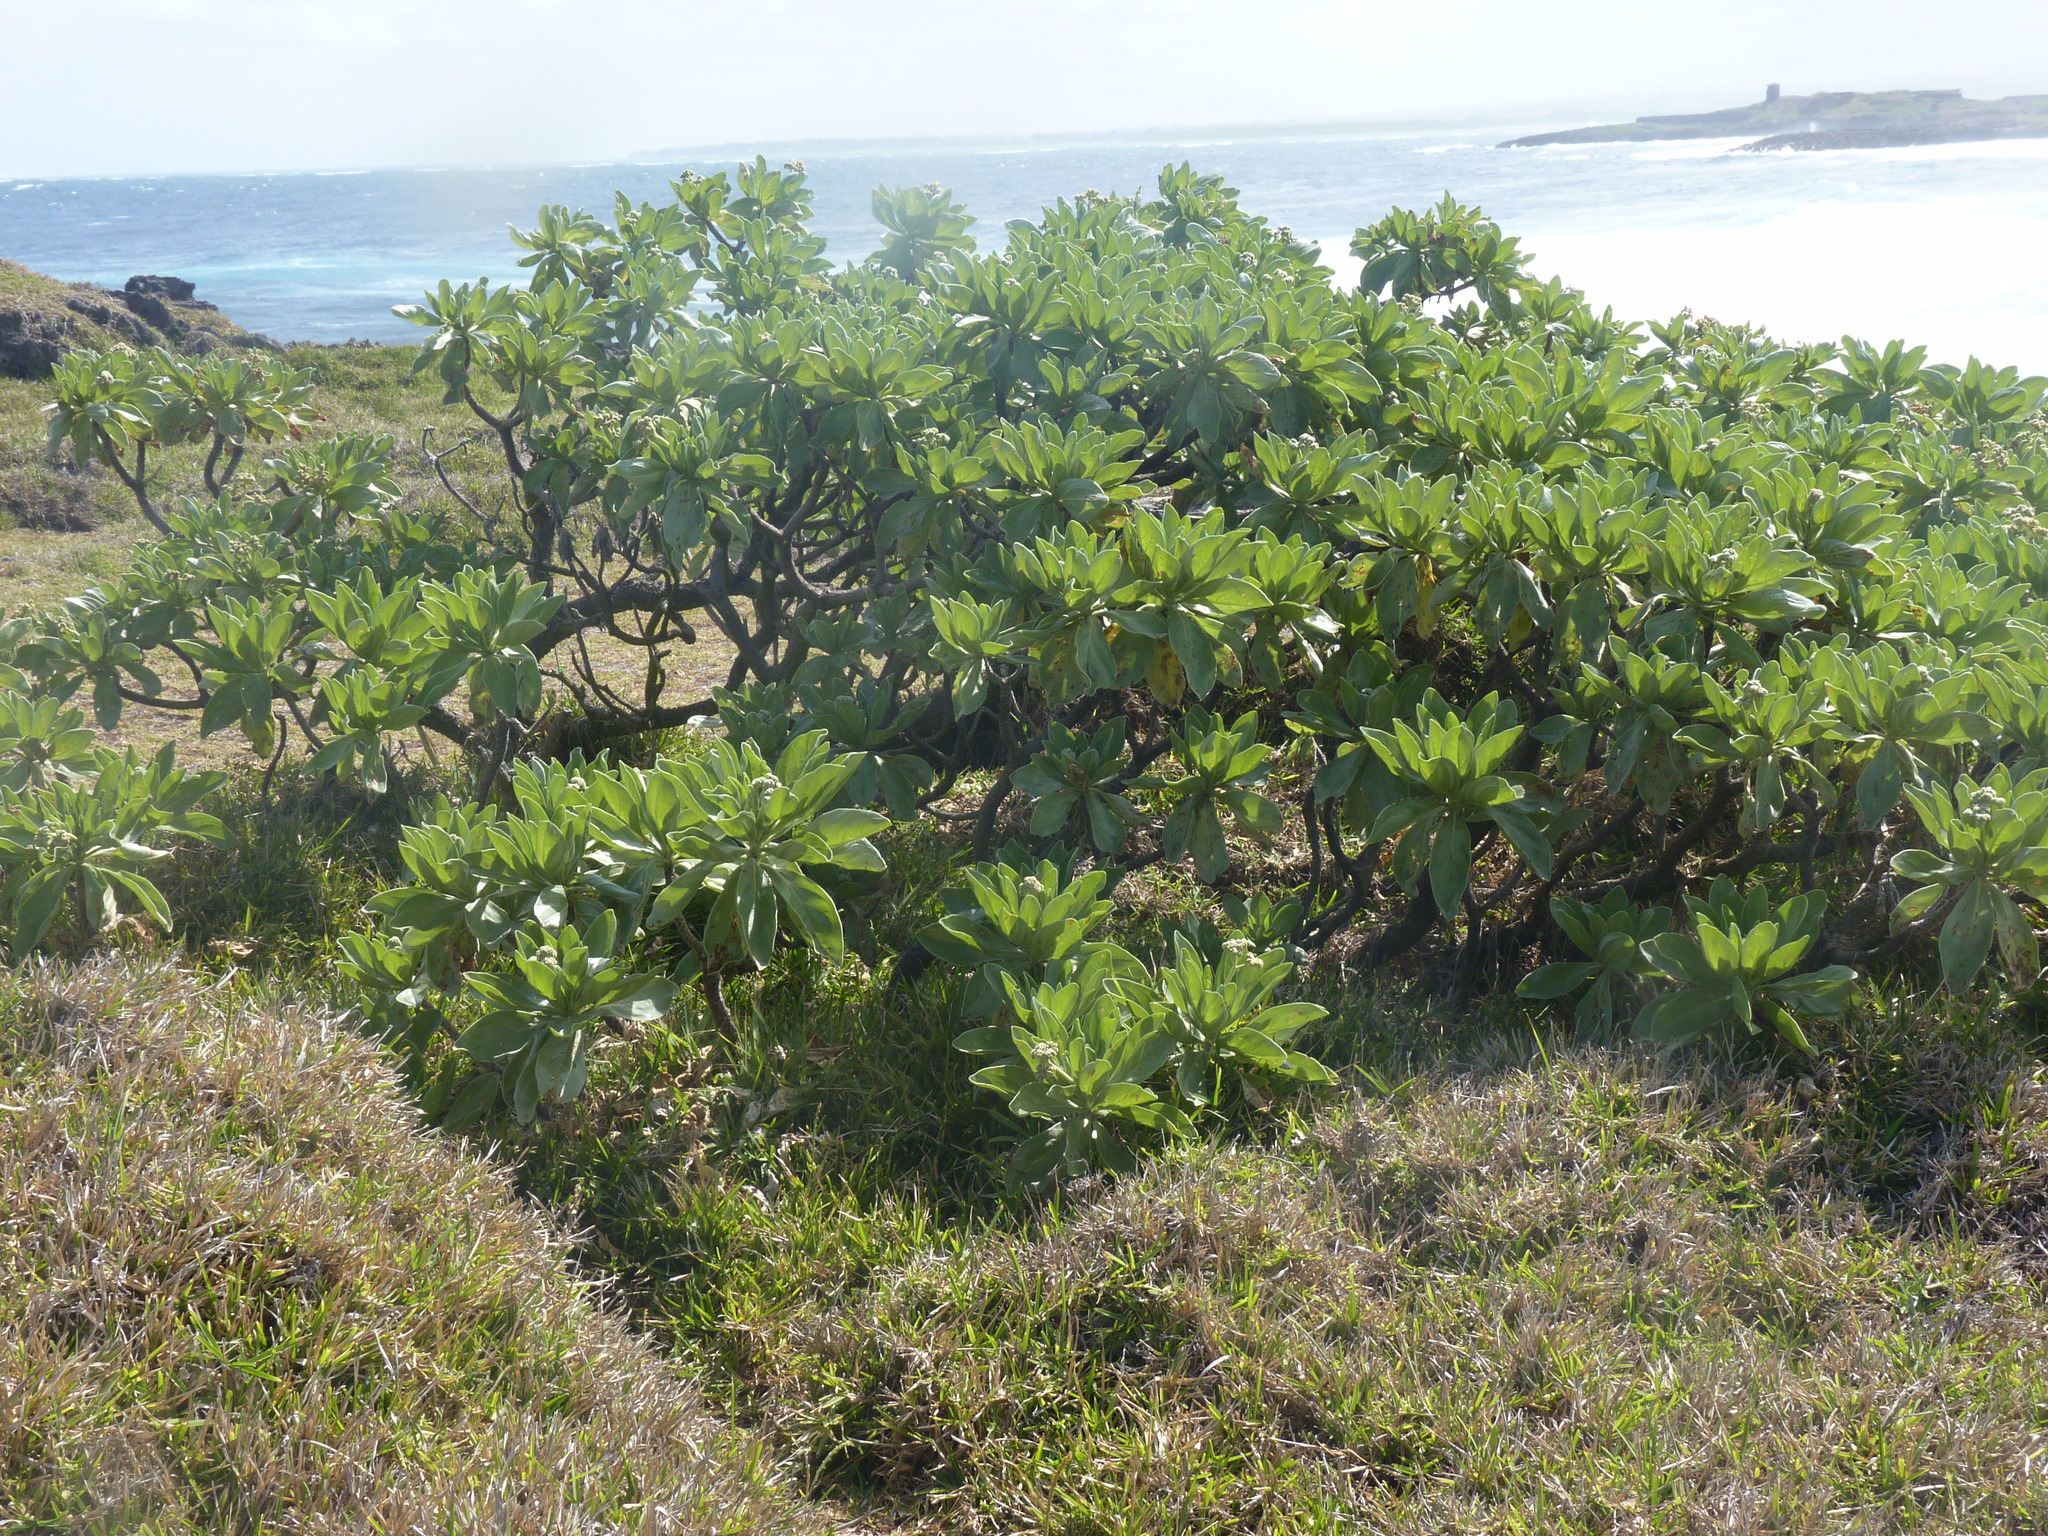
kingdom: Plantae
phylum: Tracheophyta
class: Magnoliopsida
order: Boraginales
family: Heliotropiaceae
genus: Heliotropium
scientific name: Heliotropium velutinum
